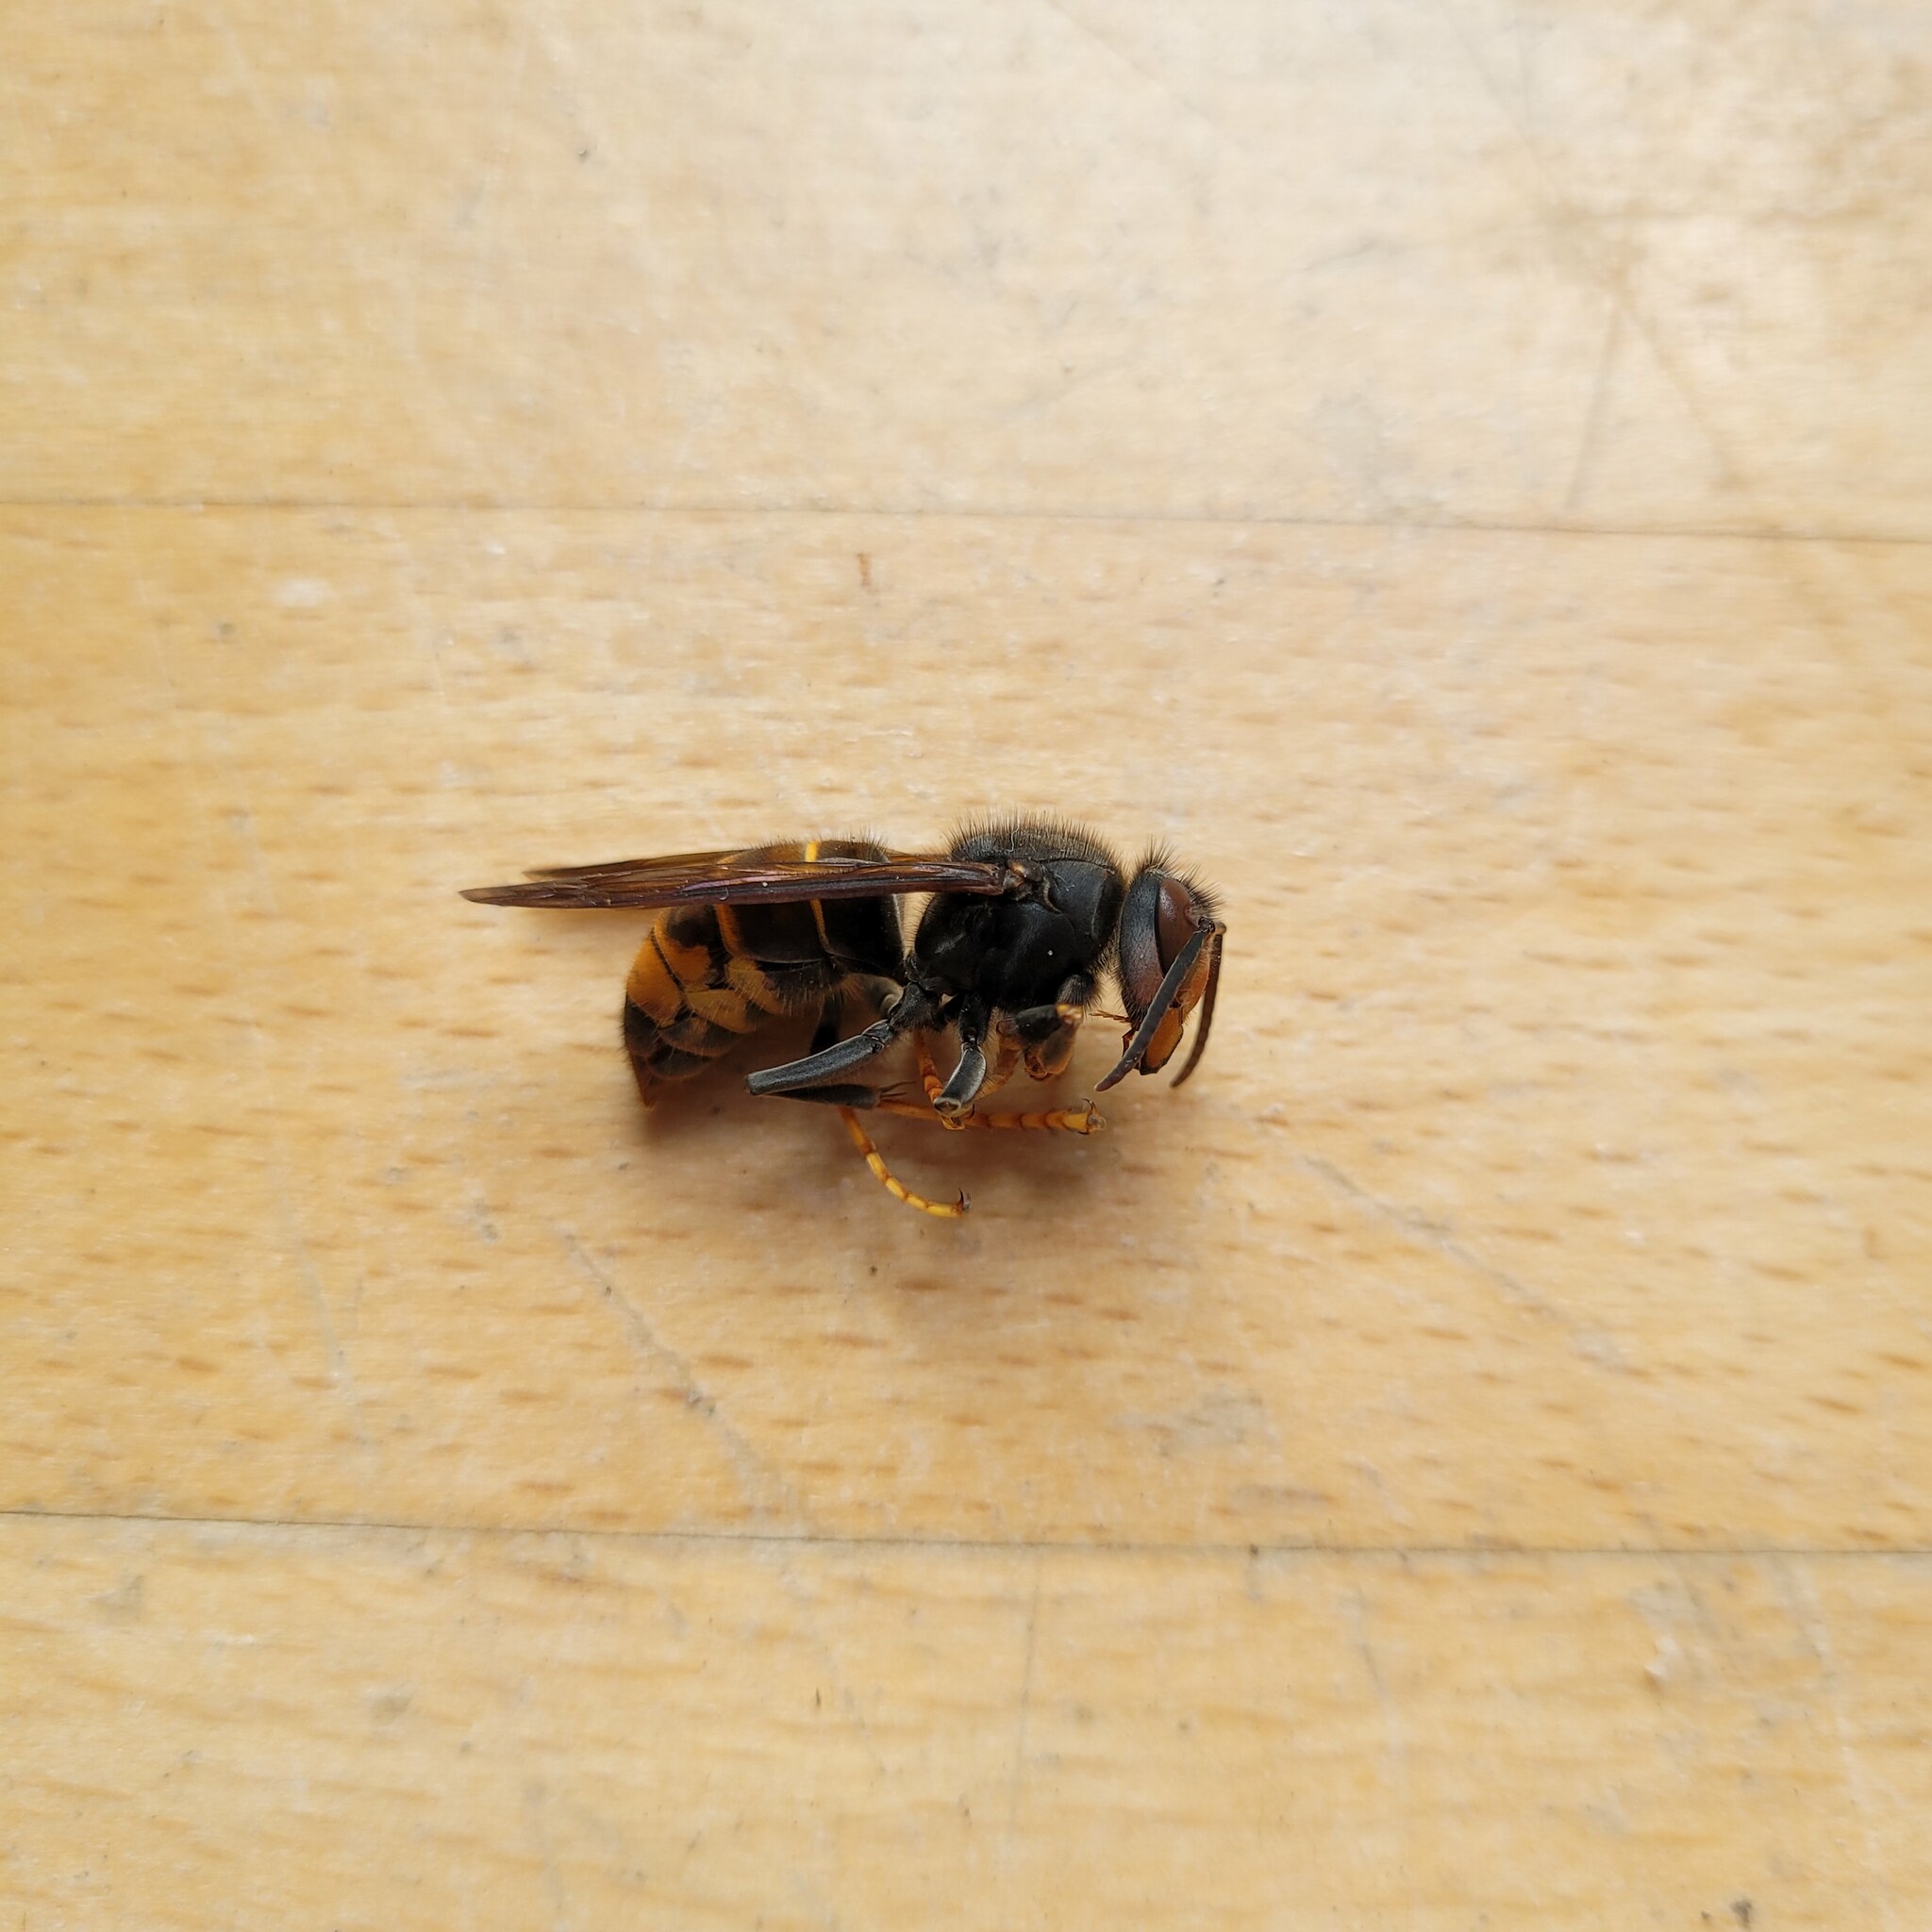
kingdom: Animalia
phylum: Arthropoda
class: Insecta
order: Hymenoptera
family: Vespidae
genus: Vespa
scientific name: Vespa velutina
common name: Asian hornet
